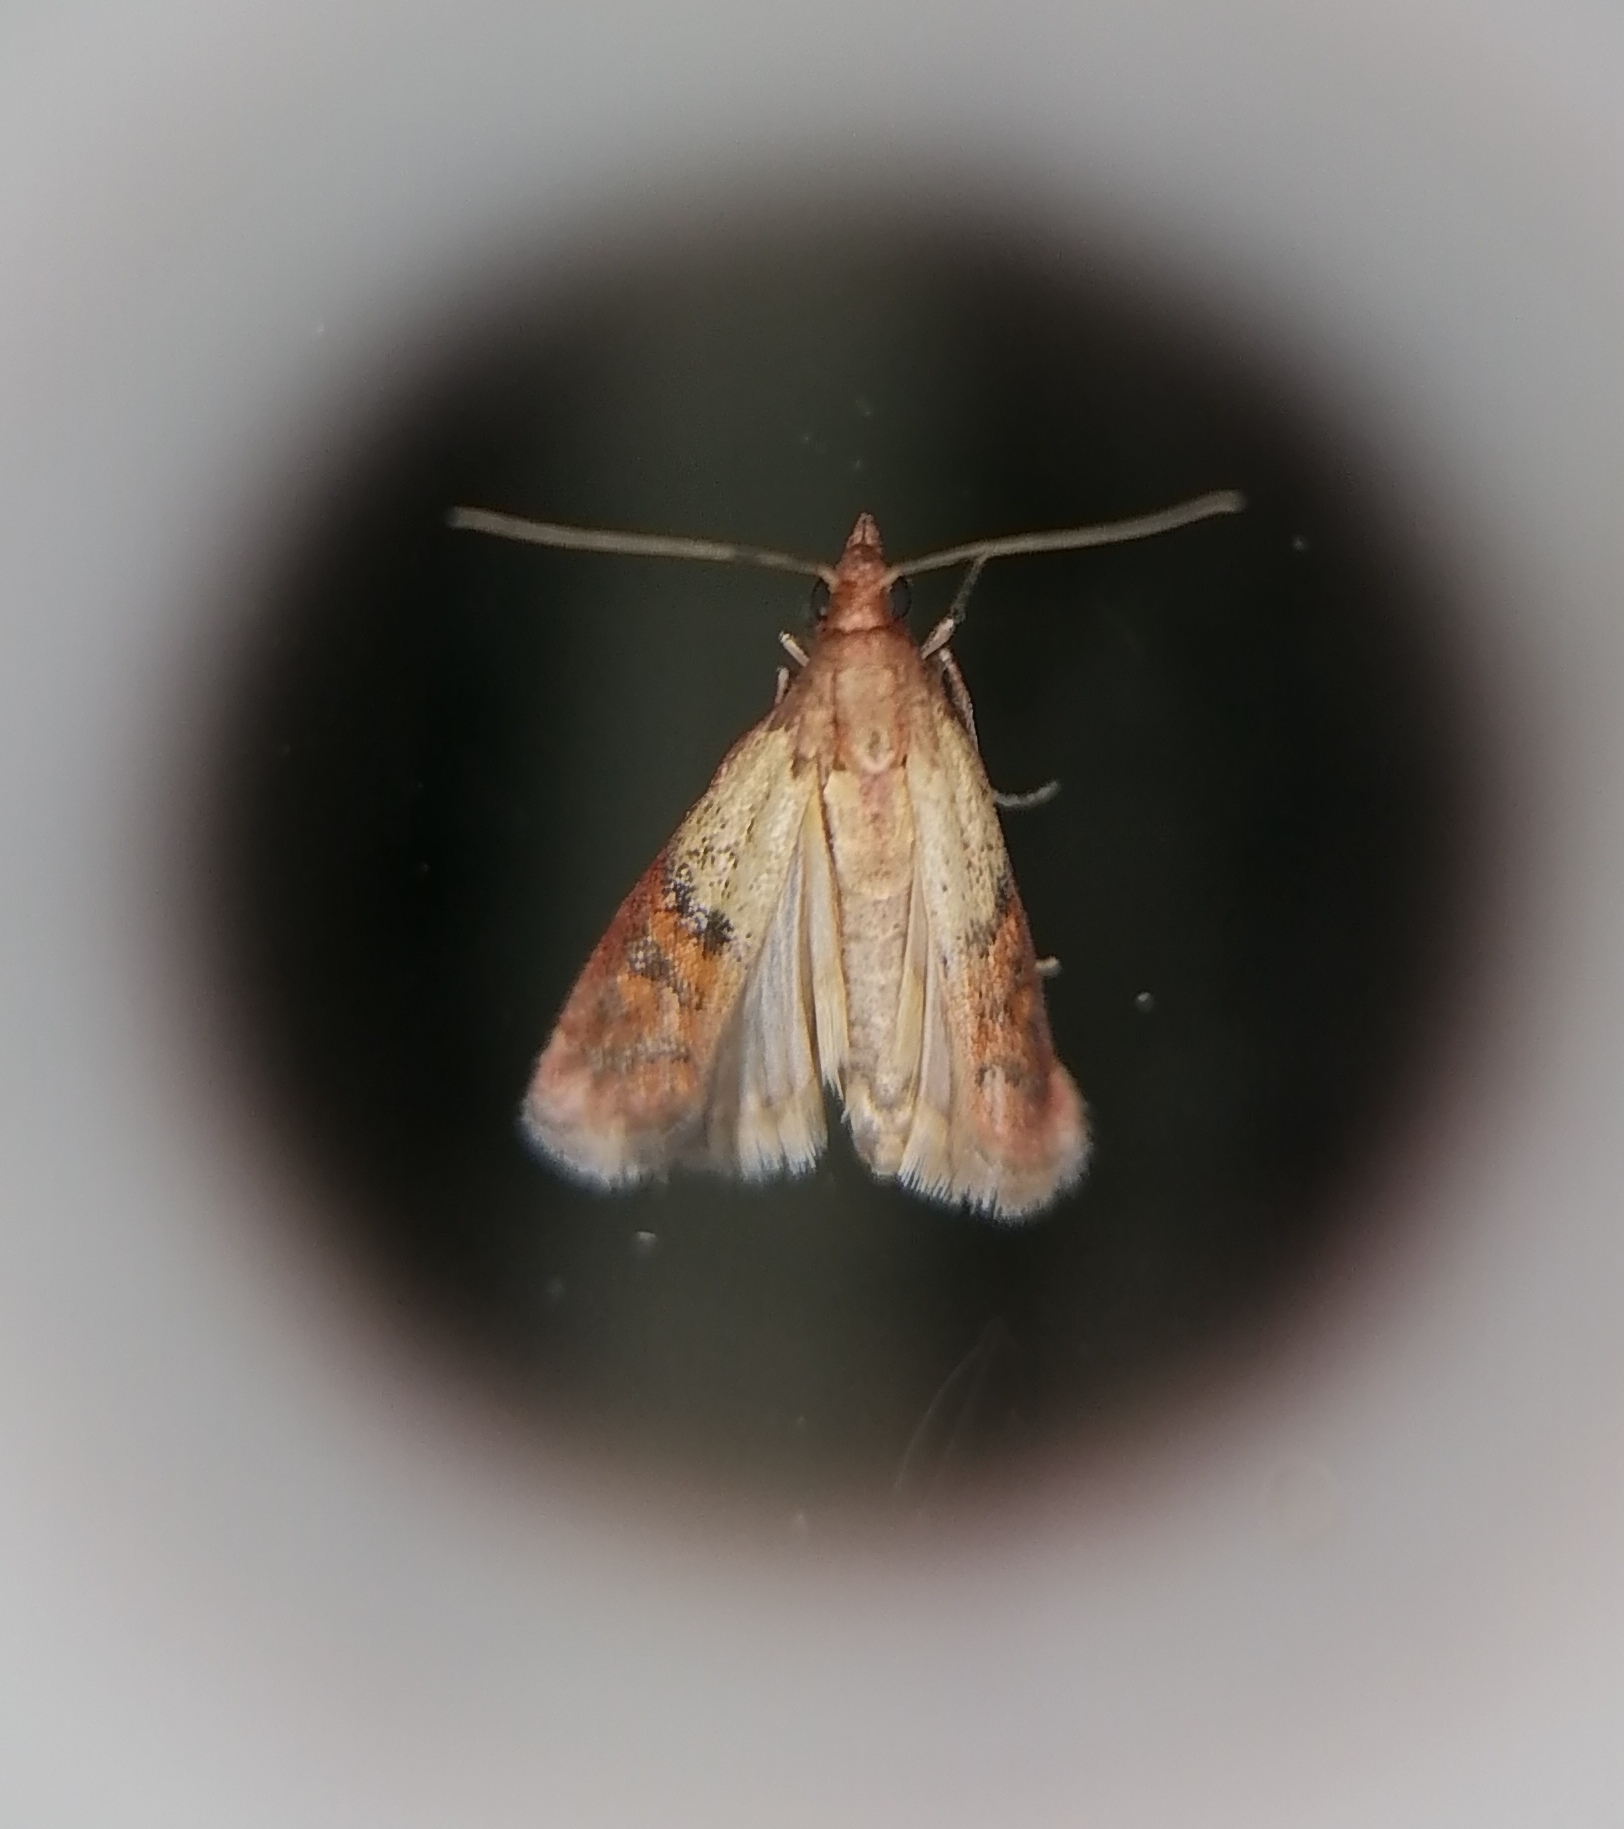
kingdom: Animalia
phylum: Arthropoda
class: Insecta
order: Lepidoptera
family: Pyralidae
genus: Plodia
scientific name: Plodia interpunctella
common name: Indian meal moth
